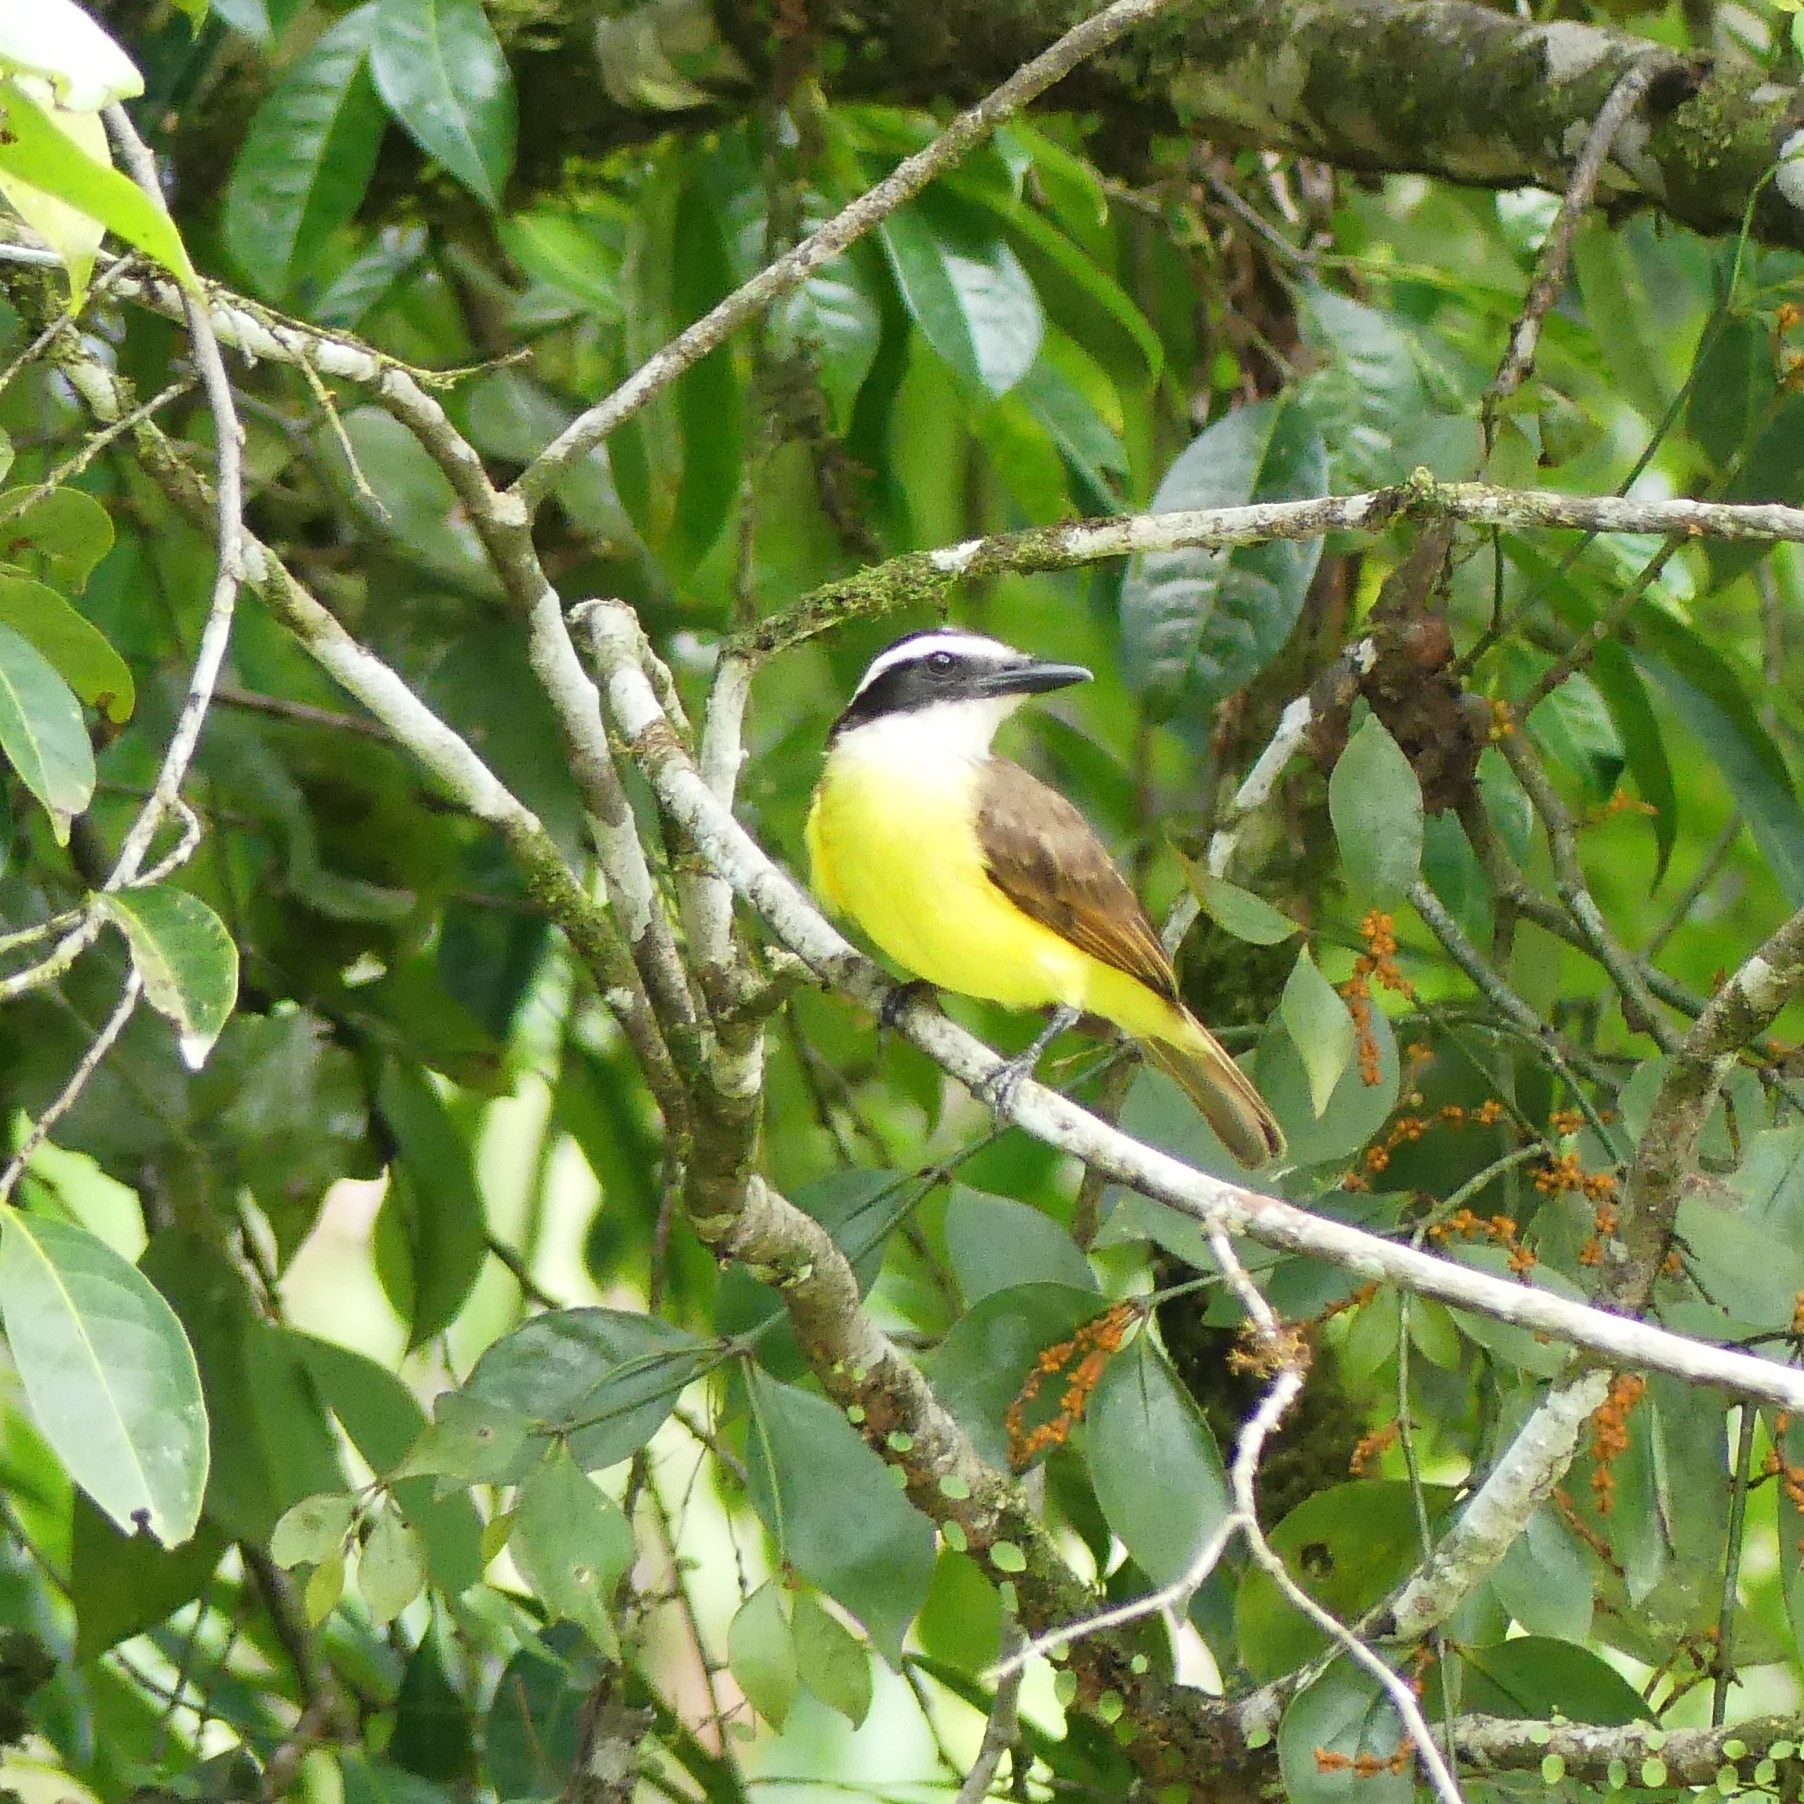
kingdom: Animalia
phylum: Chordata
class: Aves
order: Passeriformes
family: Tyrannidae
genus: Pitangus
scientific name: Pitangus sulphuratus
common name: Great kiskadee
